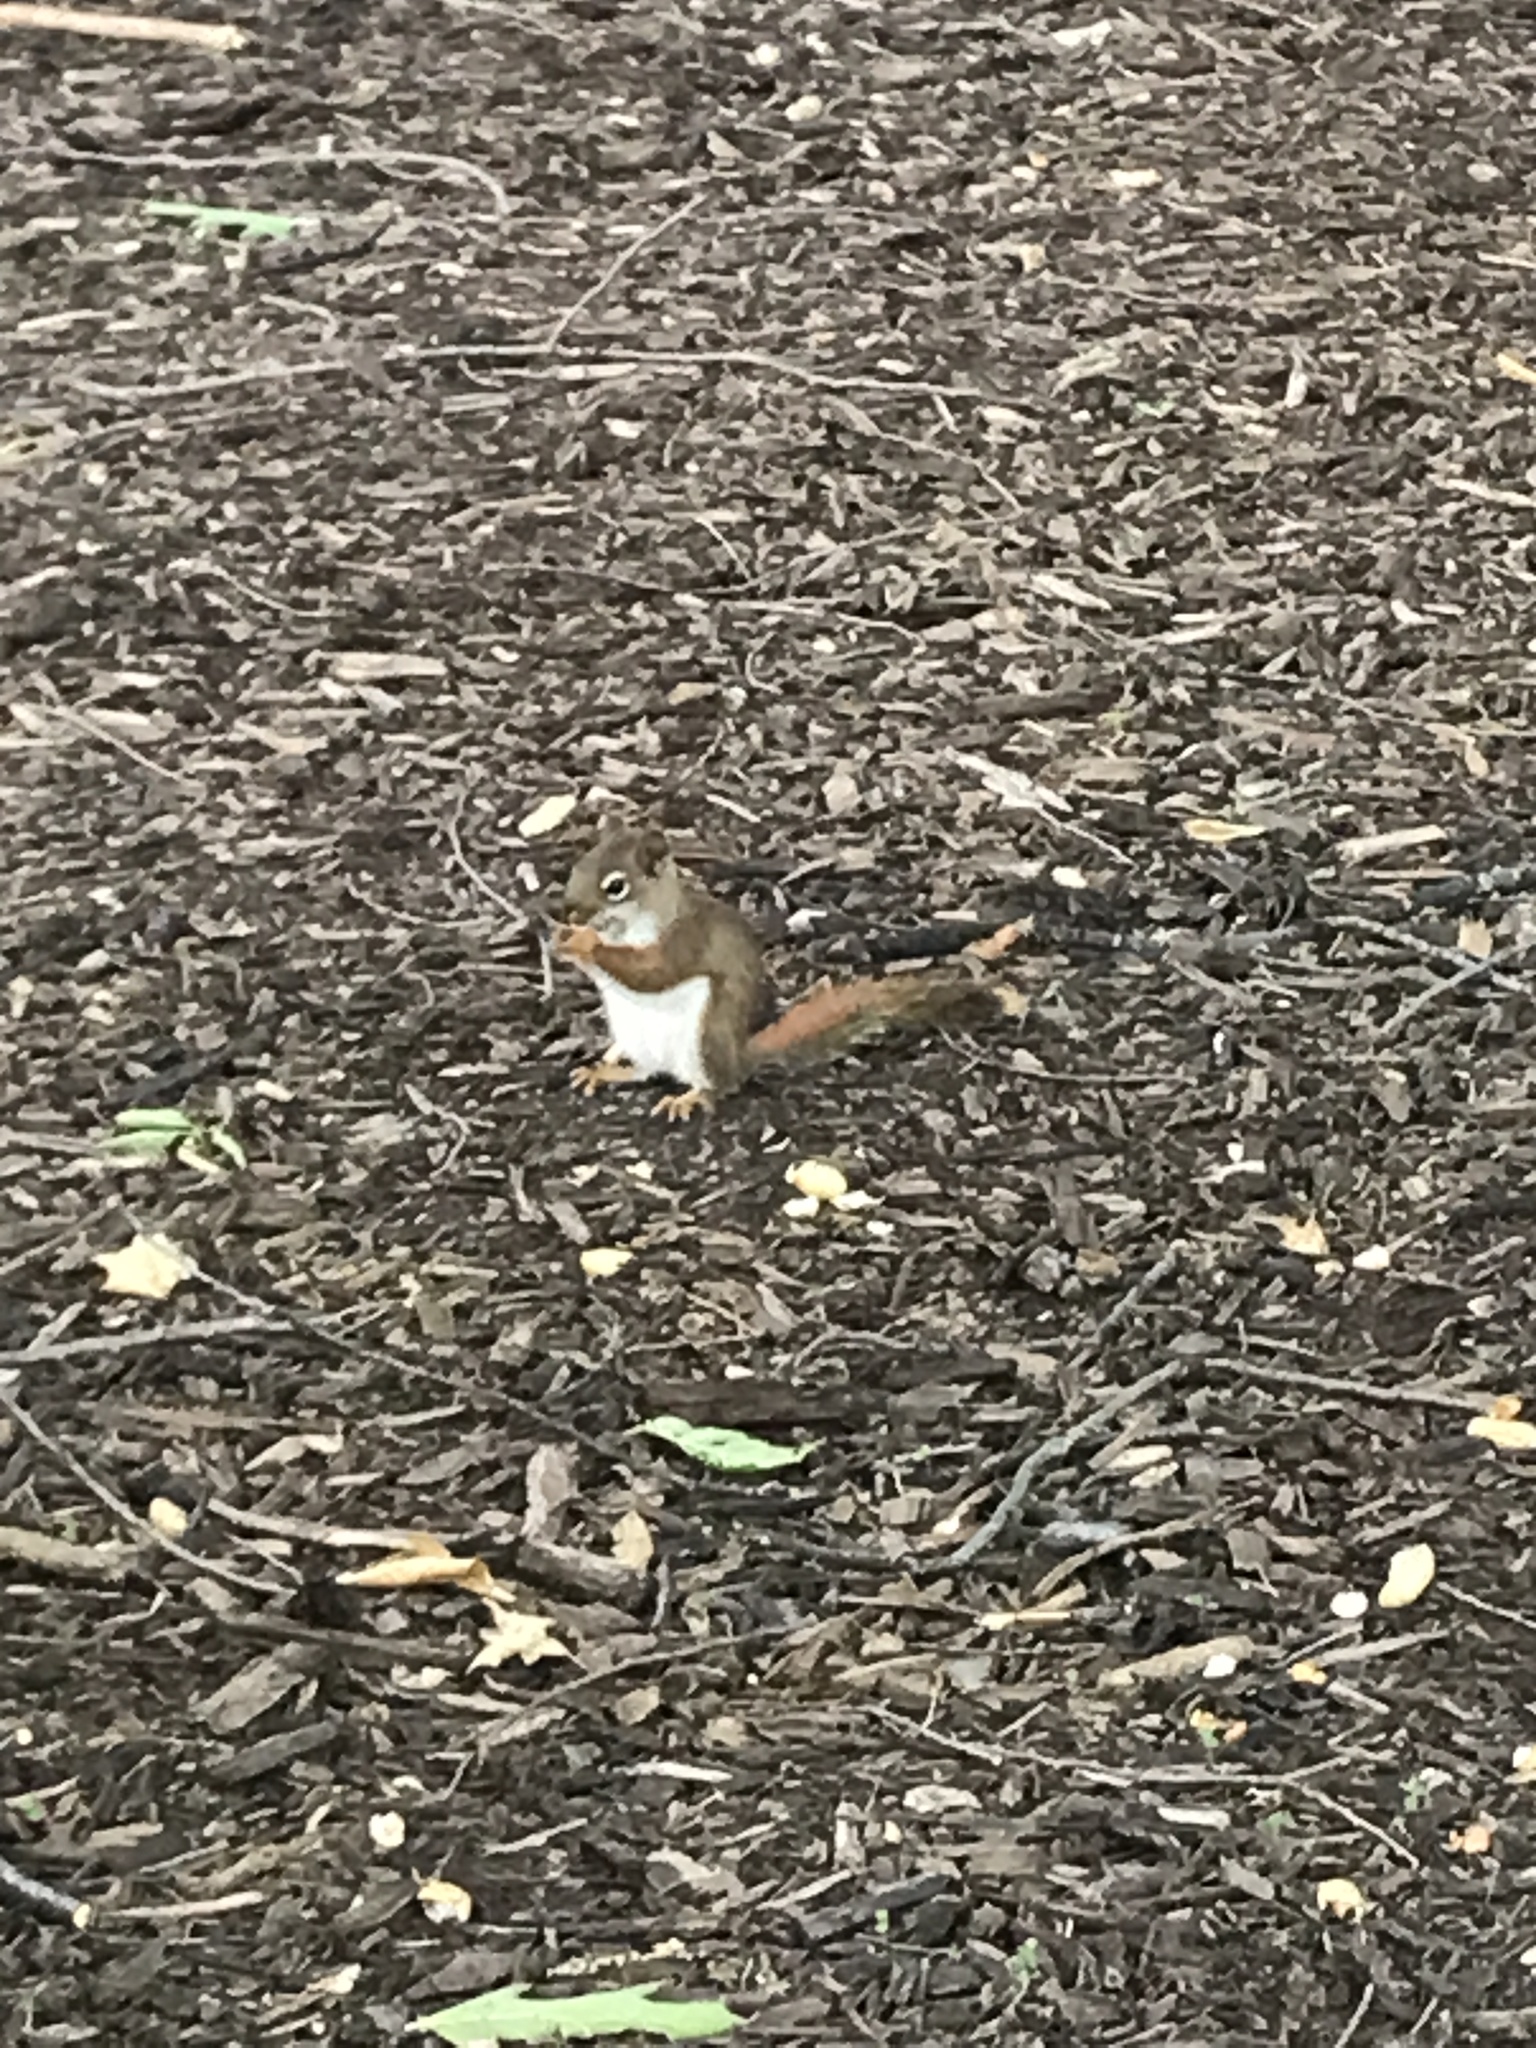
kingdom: Animalia
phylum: Chordata
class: Mammalia
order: Rodentia
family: Sciuridae
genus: Tamiasciurus
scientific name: Tamiasciurus hudsonicus
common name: Red squirrel
